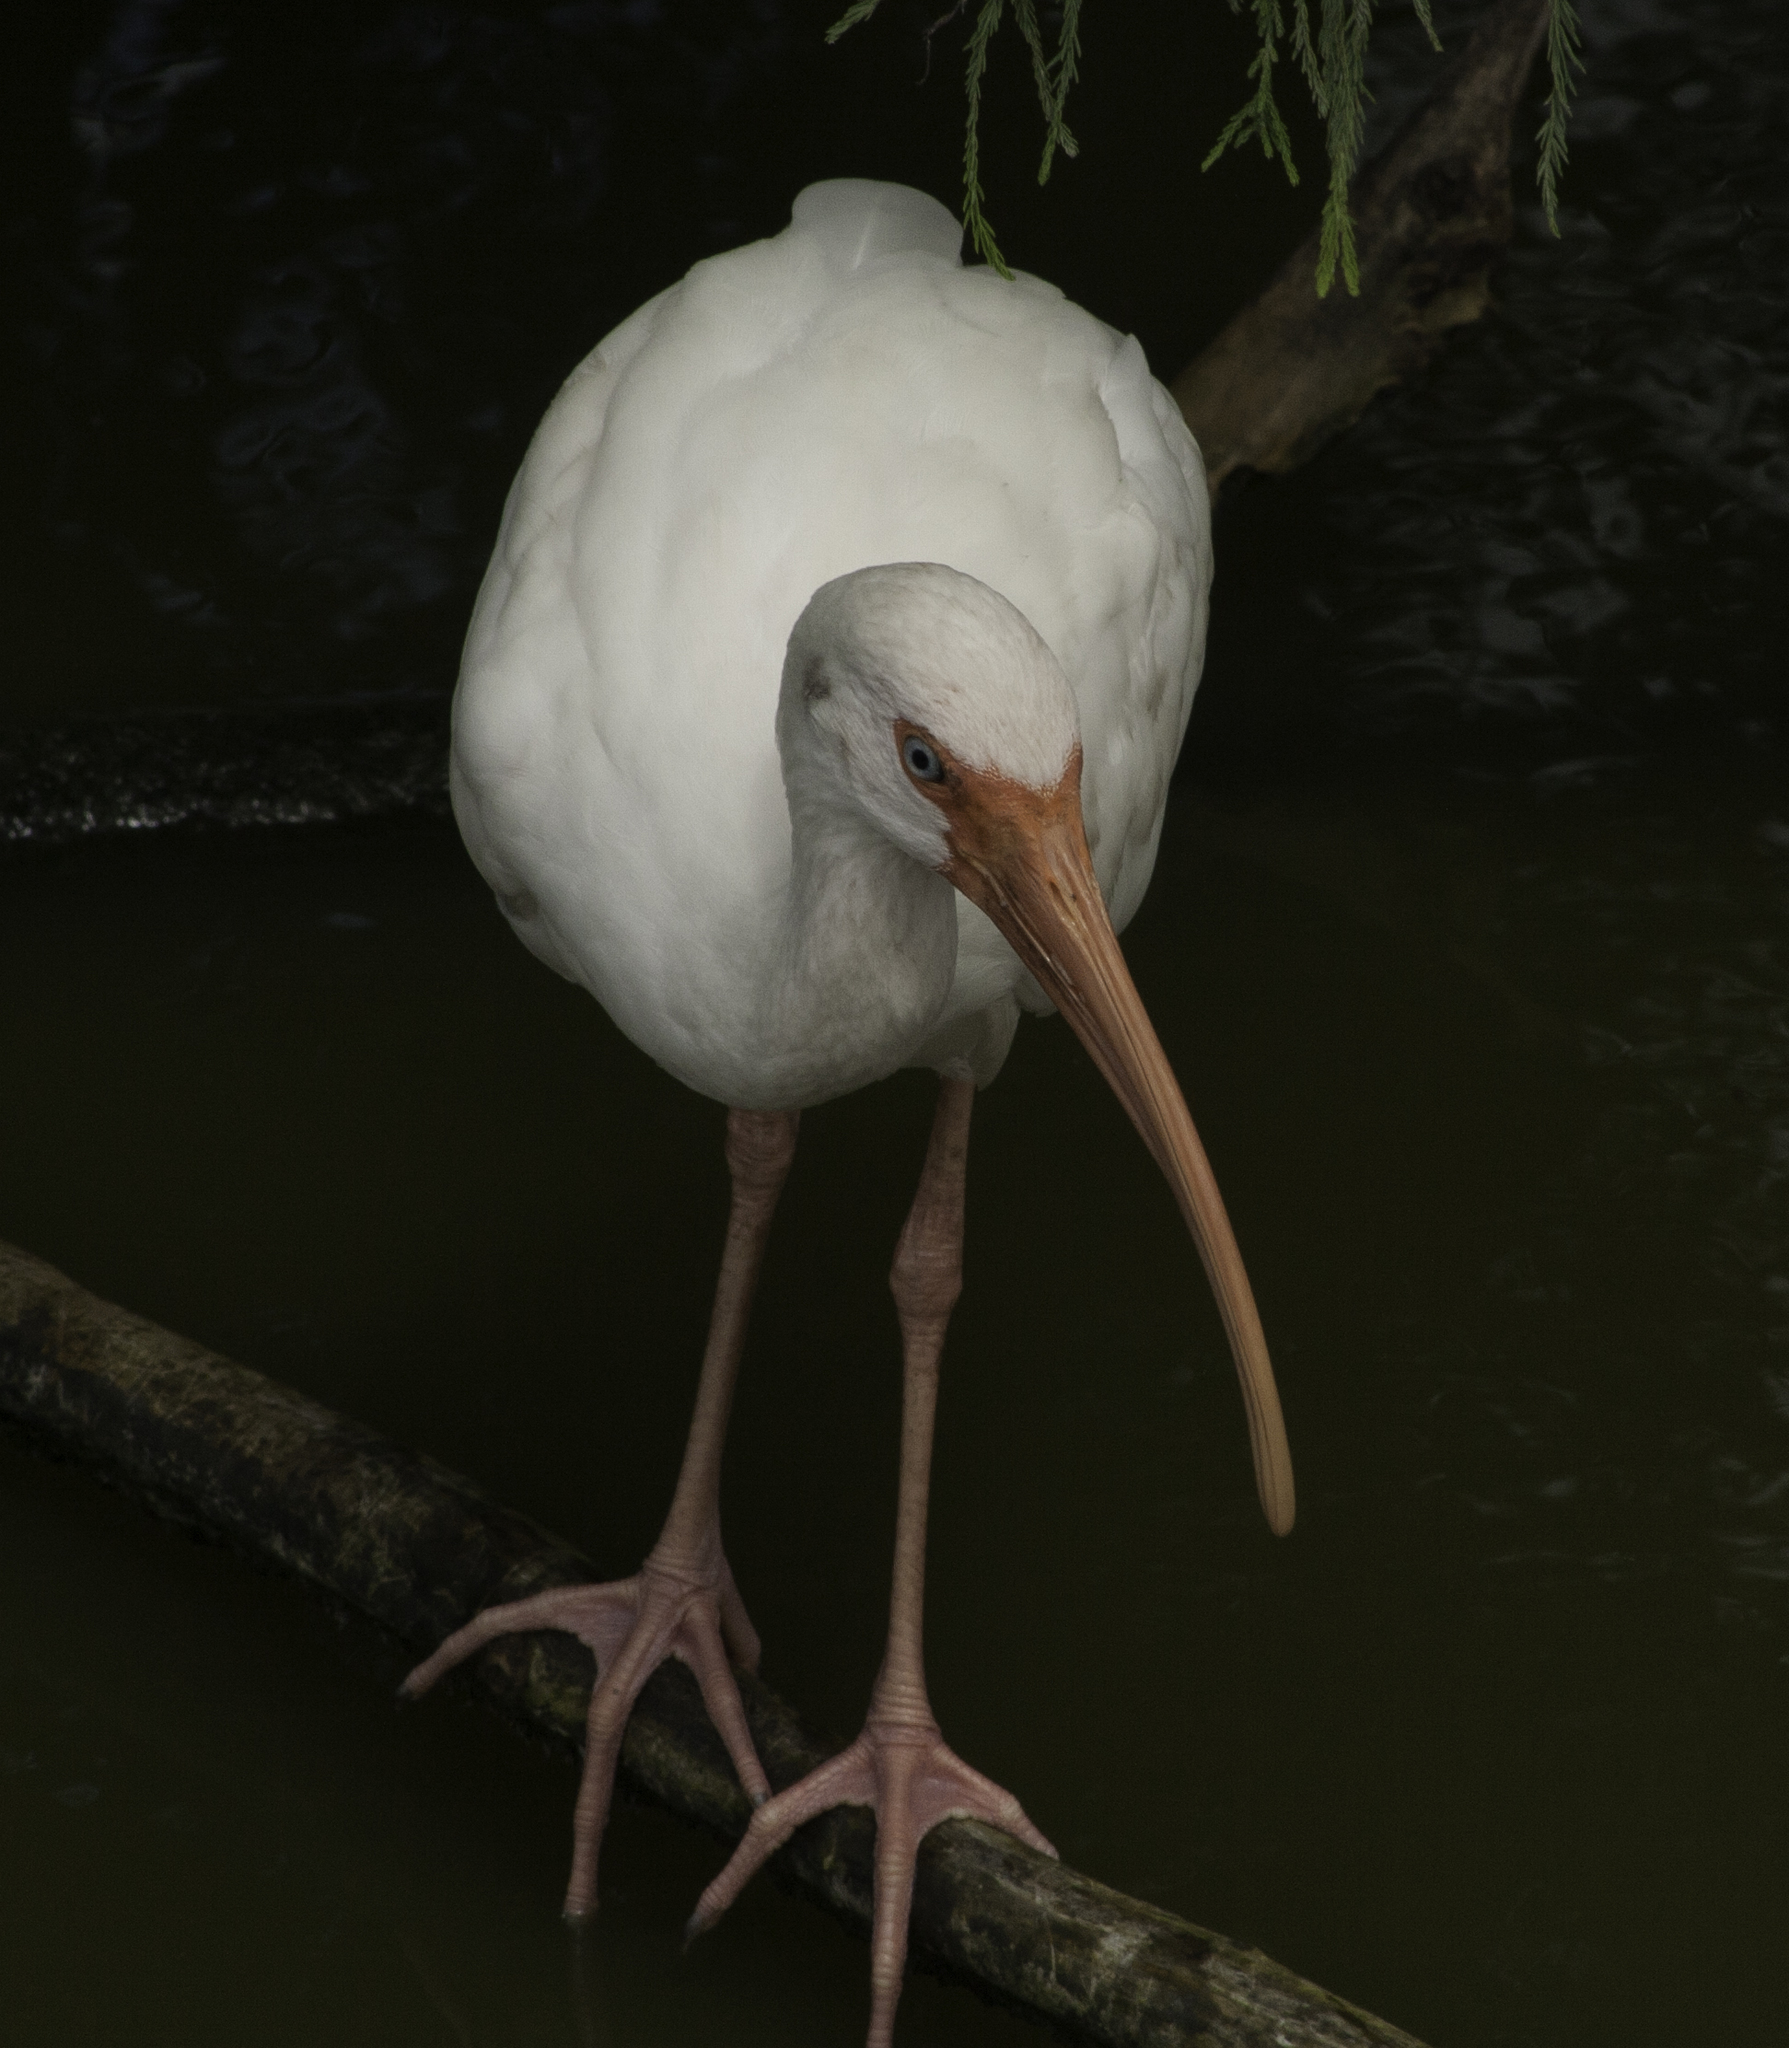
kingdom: Animalia
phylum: Chordata
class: Aves
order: Pelecaniformes
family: Threskiornithidae
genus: Eudocimus
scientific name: Eudocimus albus
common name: White ibis
